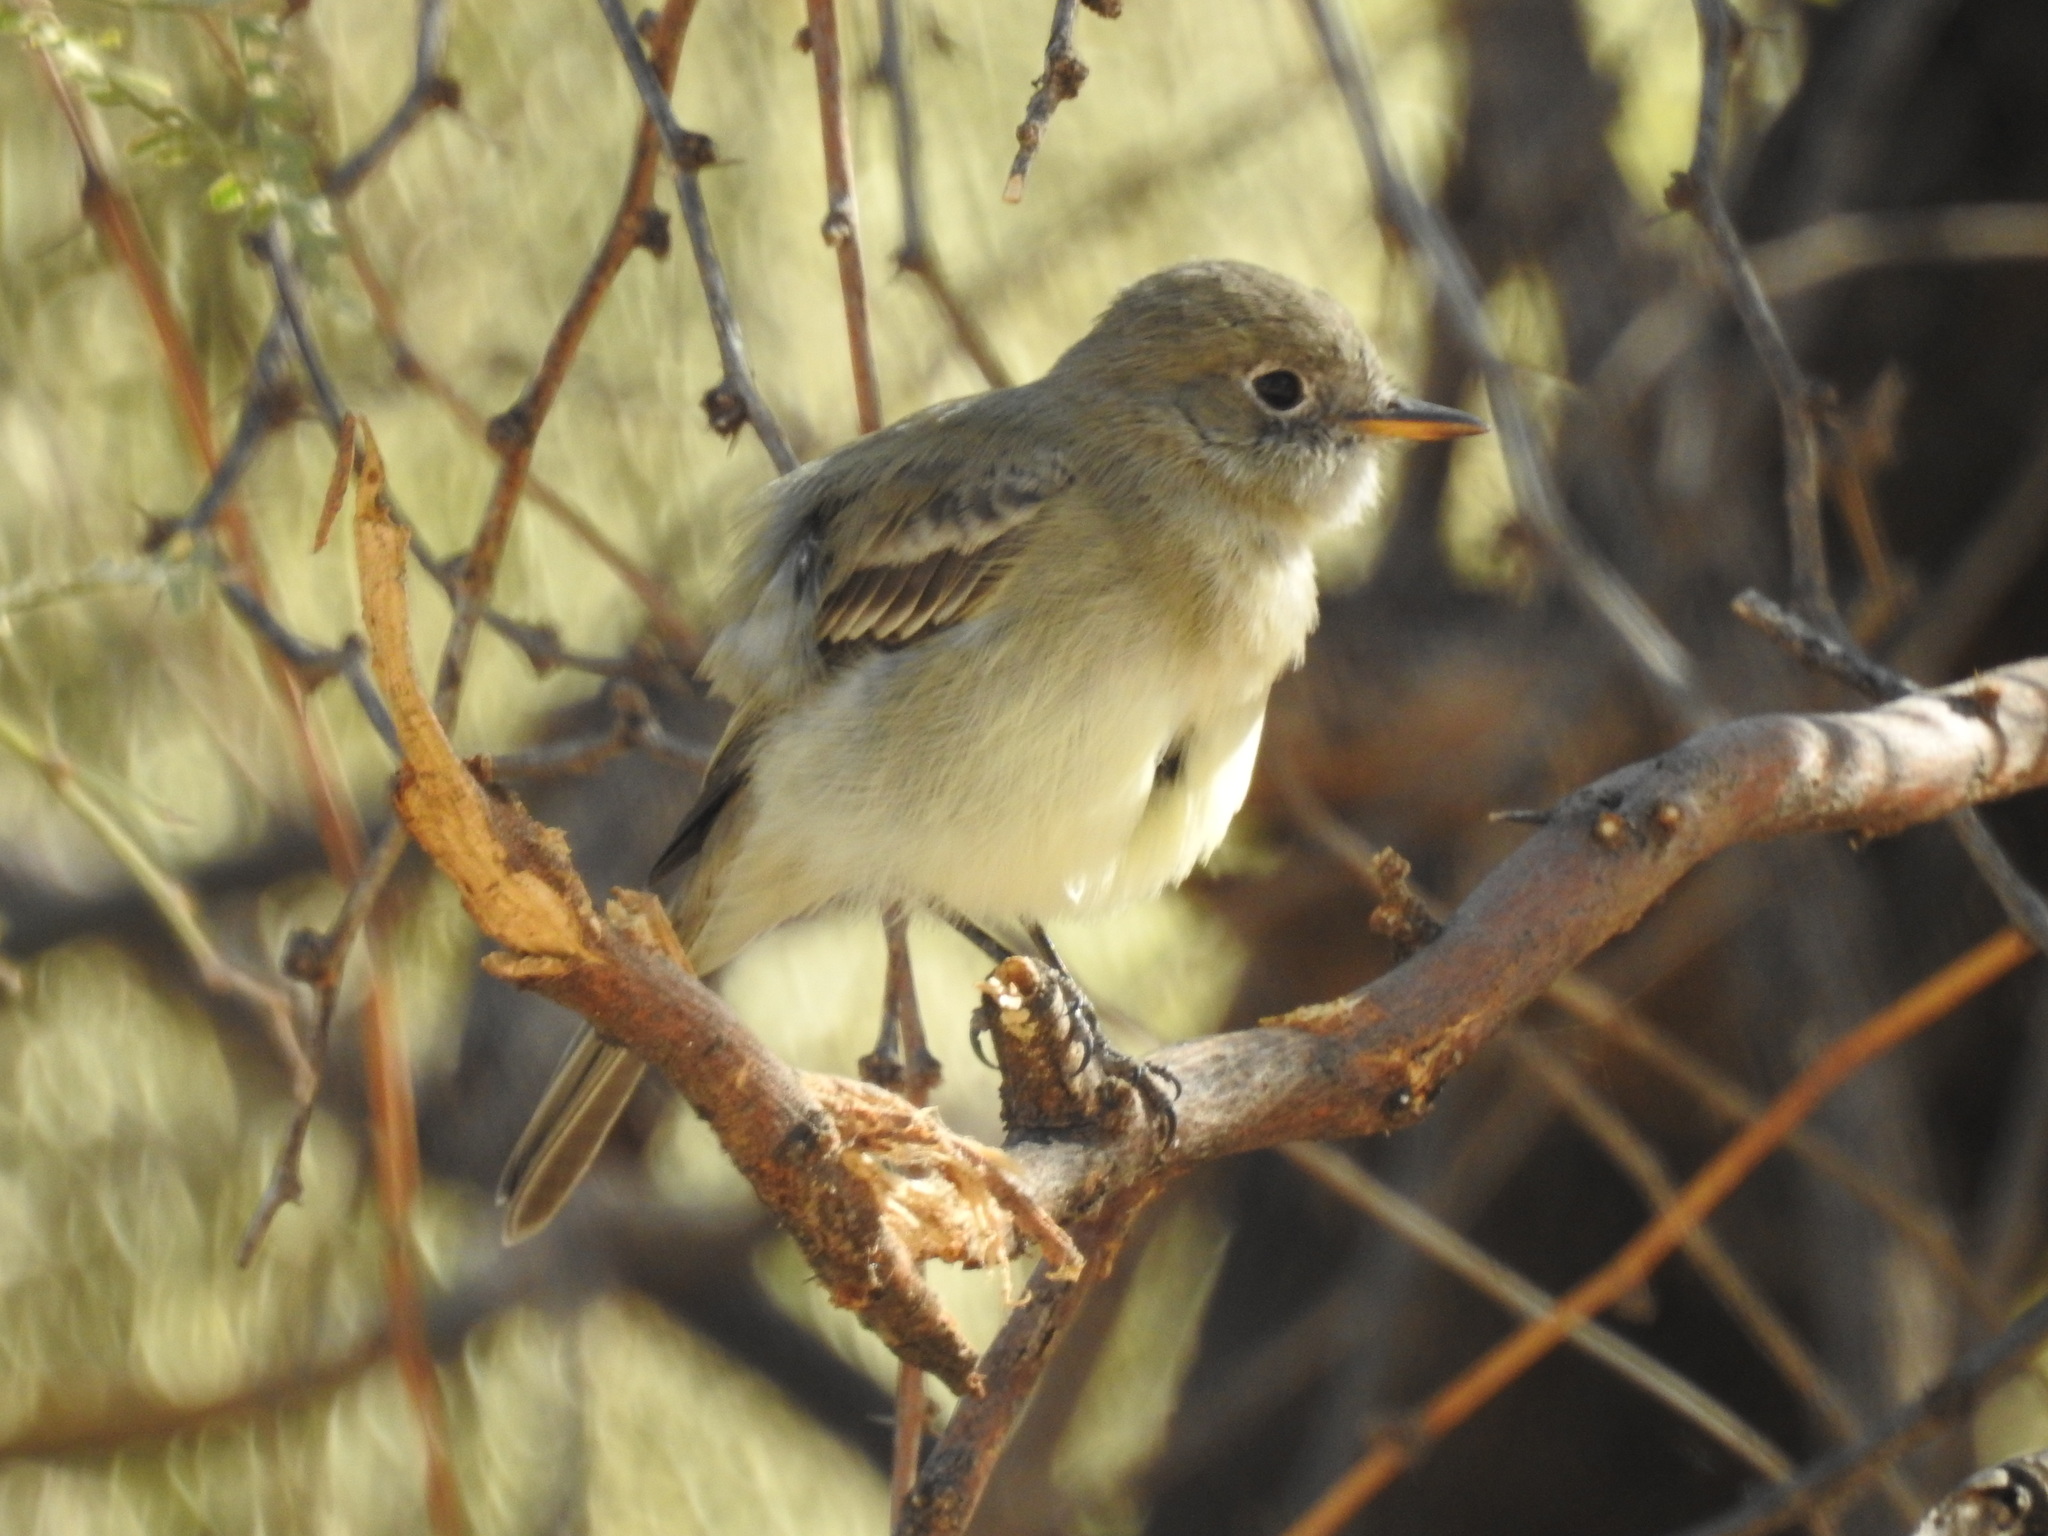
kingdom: Animalia
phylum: Chordata
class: Aves
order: Passeriformes
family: Tyrannidae
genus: Empidonax
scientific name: Empidonax wrightii
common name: Gray flycatcher
